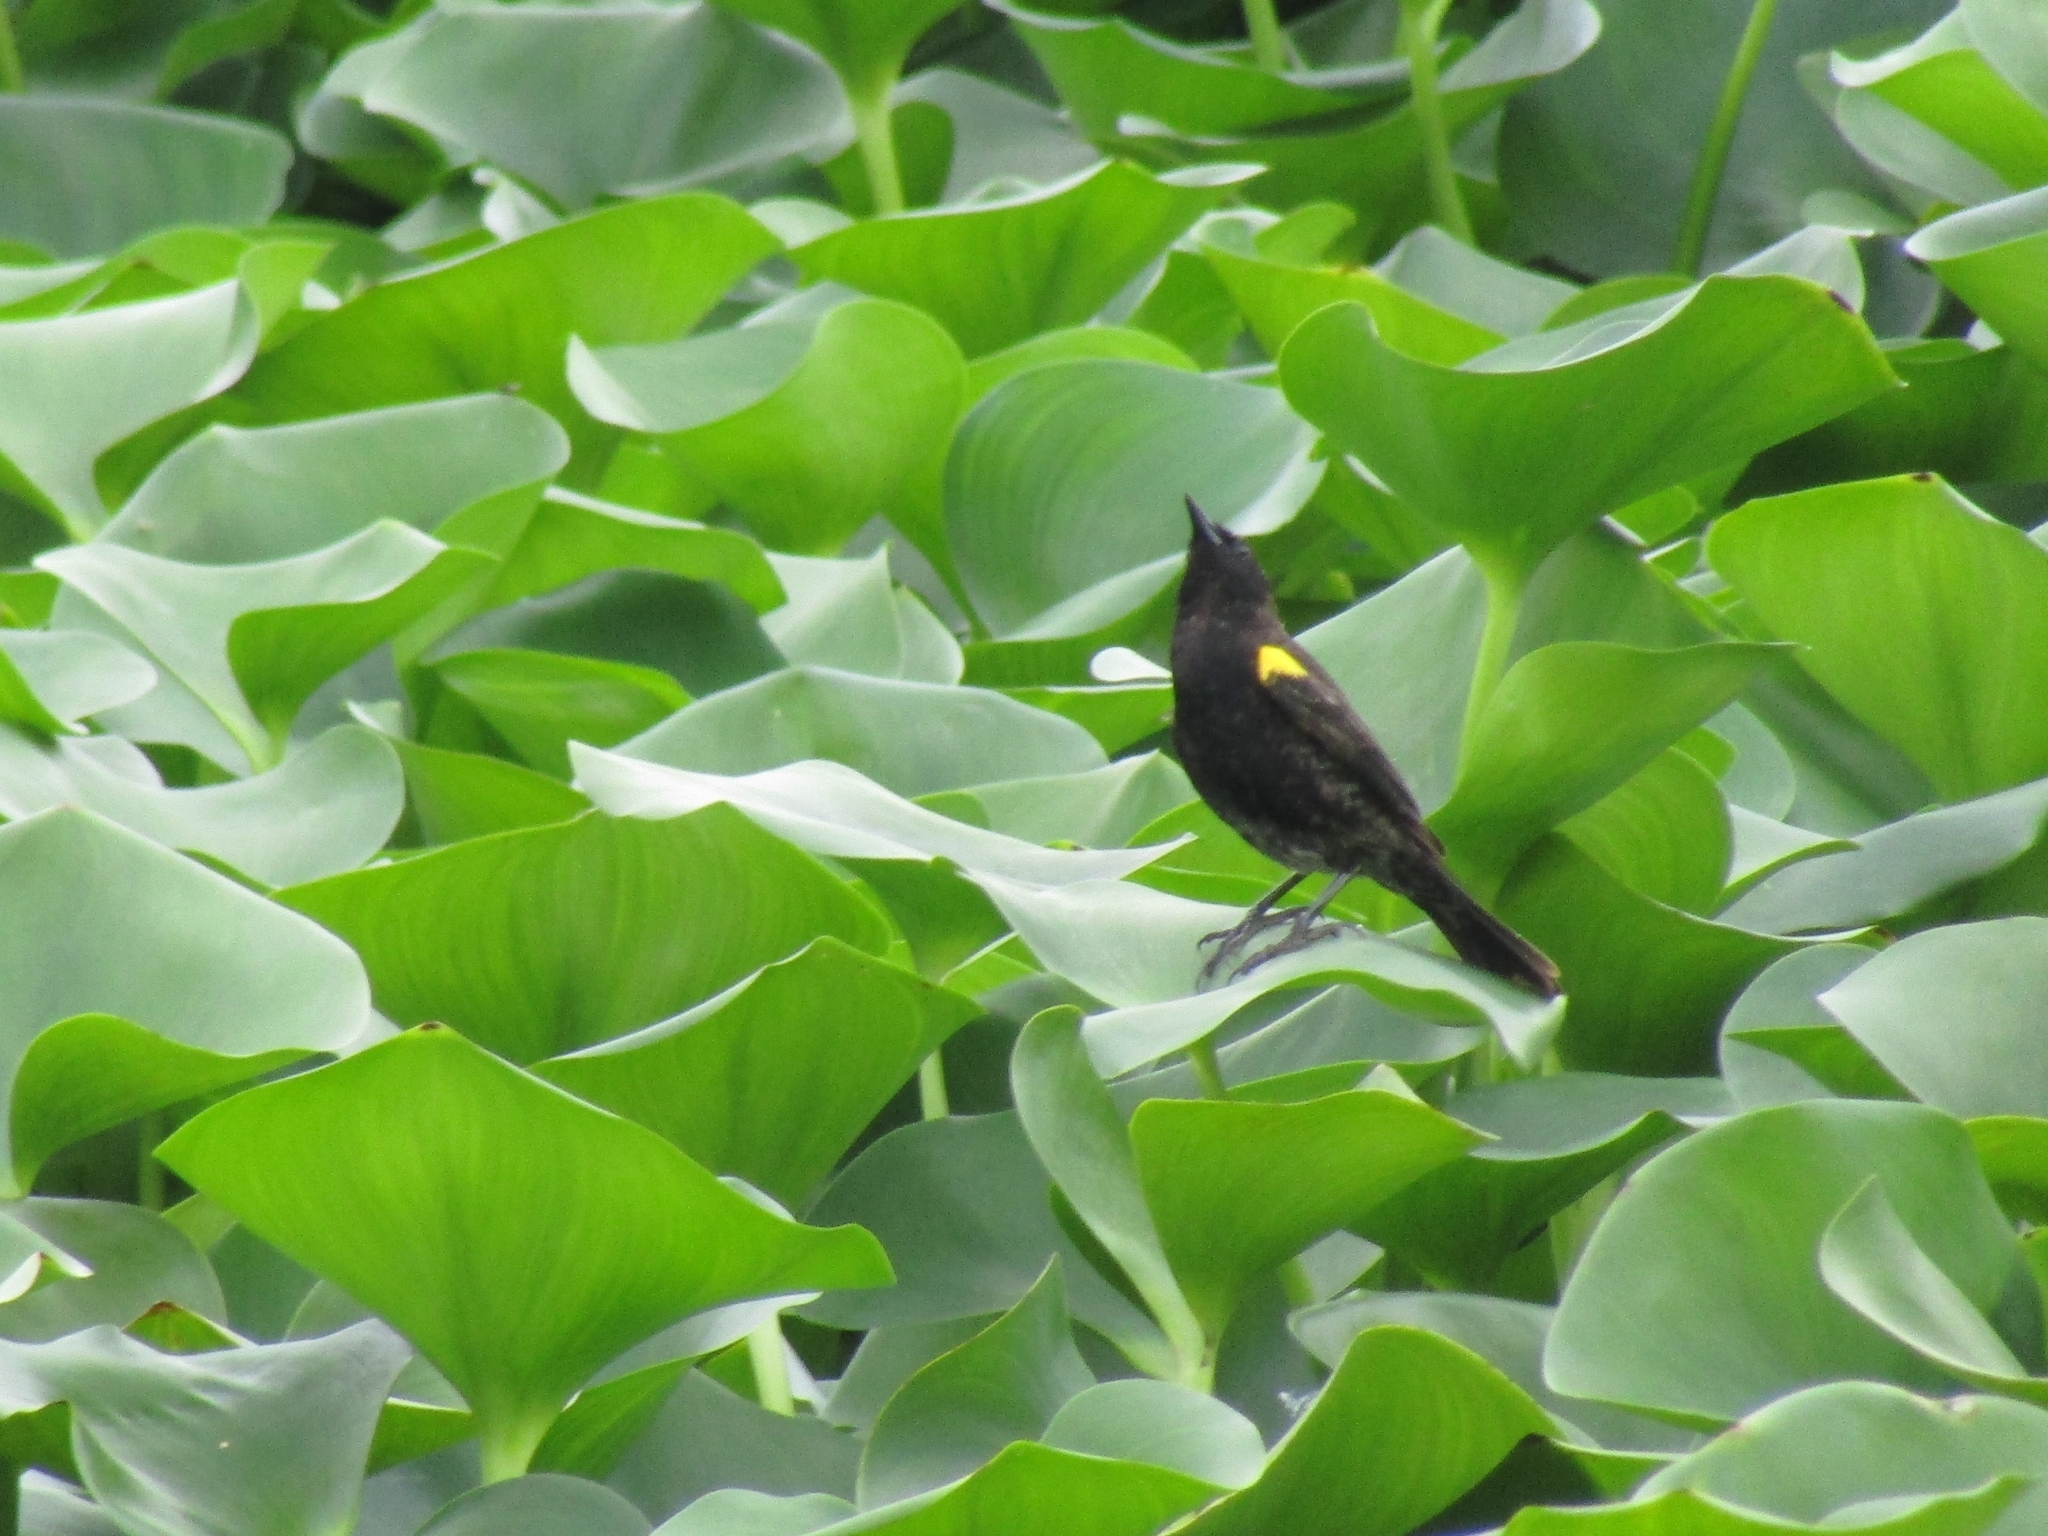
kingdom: Animalia
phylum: Chordata
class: Aves
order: Passeriformes
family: Icteridae
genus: Agelasticus
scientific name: Agelasticus thilius
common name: Yellow-winged blackbird
